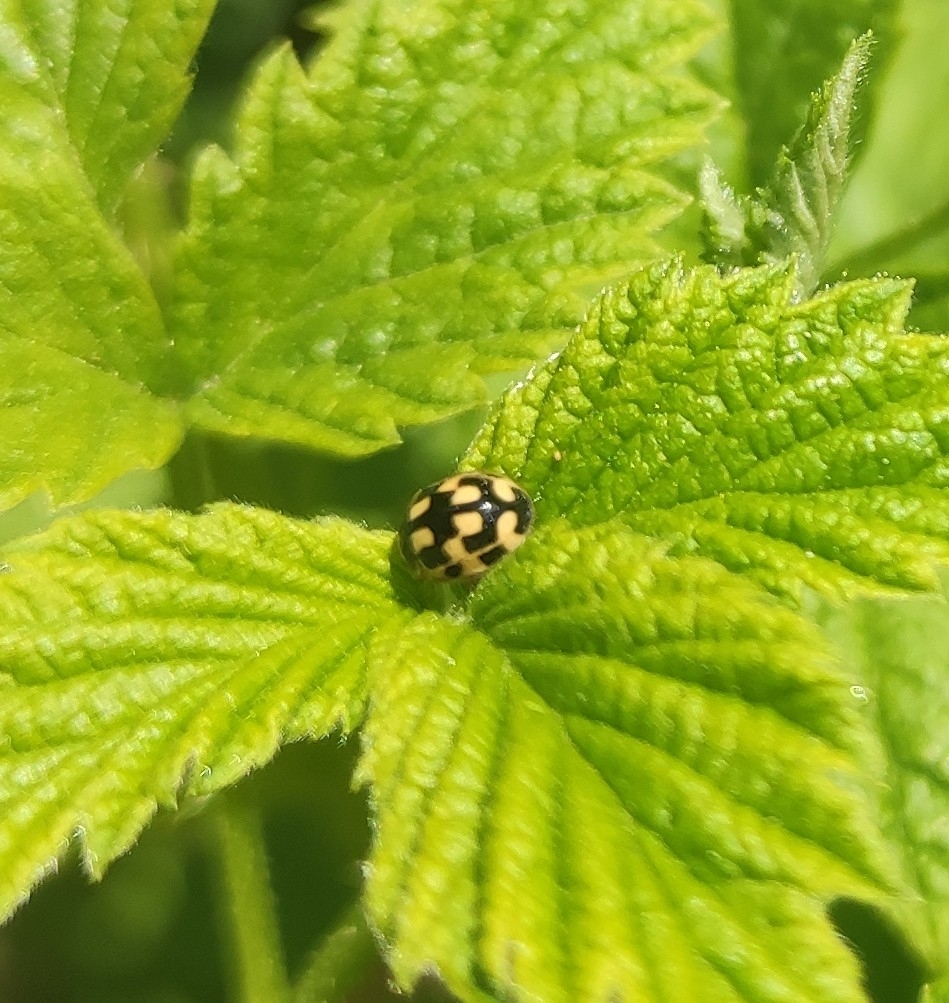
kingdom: Animalia
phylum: Arthropoda
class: Insecta
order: Coleoptera
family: Coccinellidae
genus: Propylaea
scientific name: Propylaea quatuordecimpunctata
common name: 14-spotted ladybird beetle
